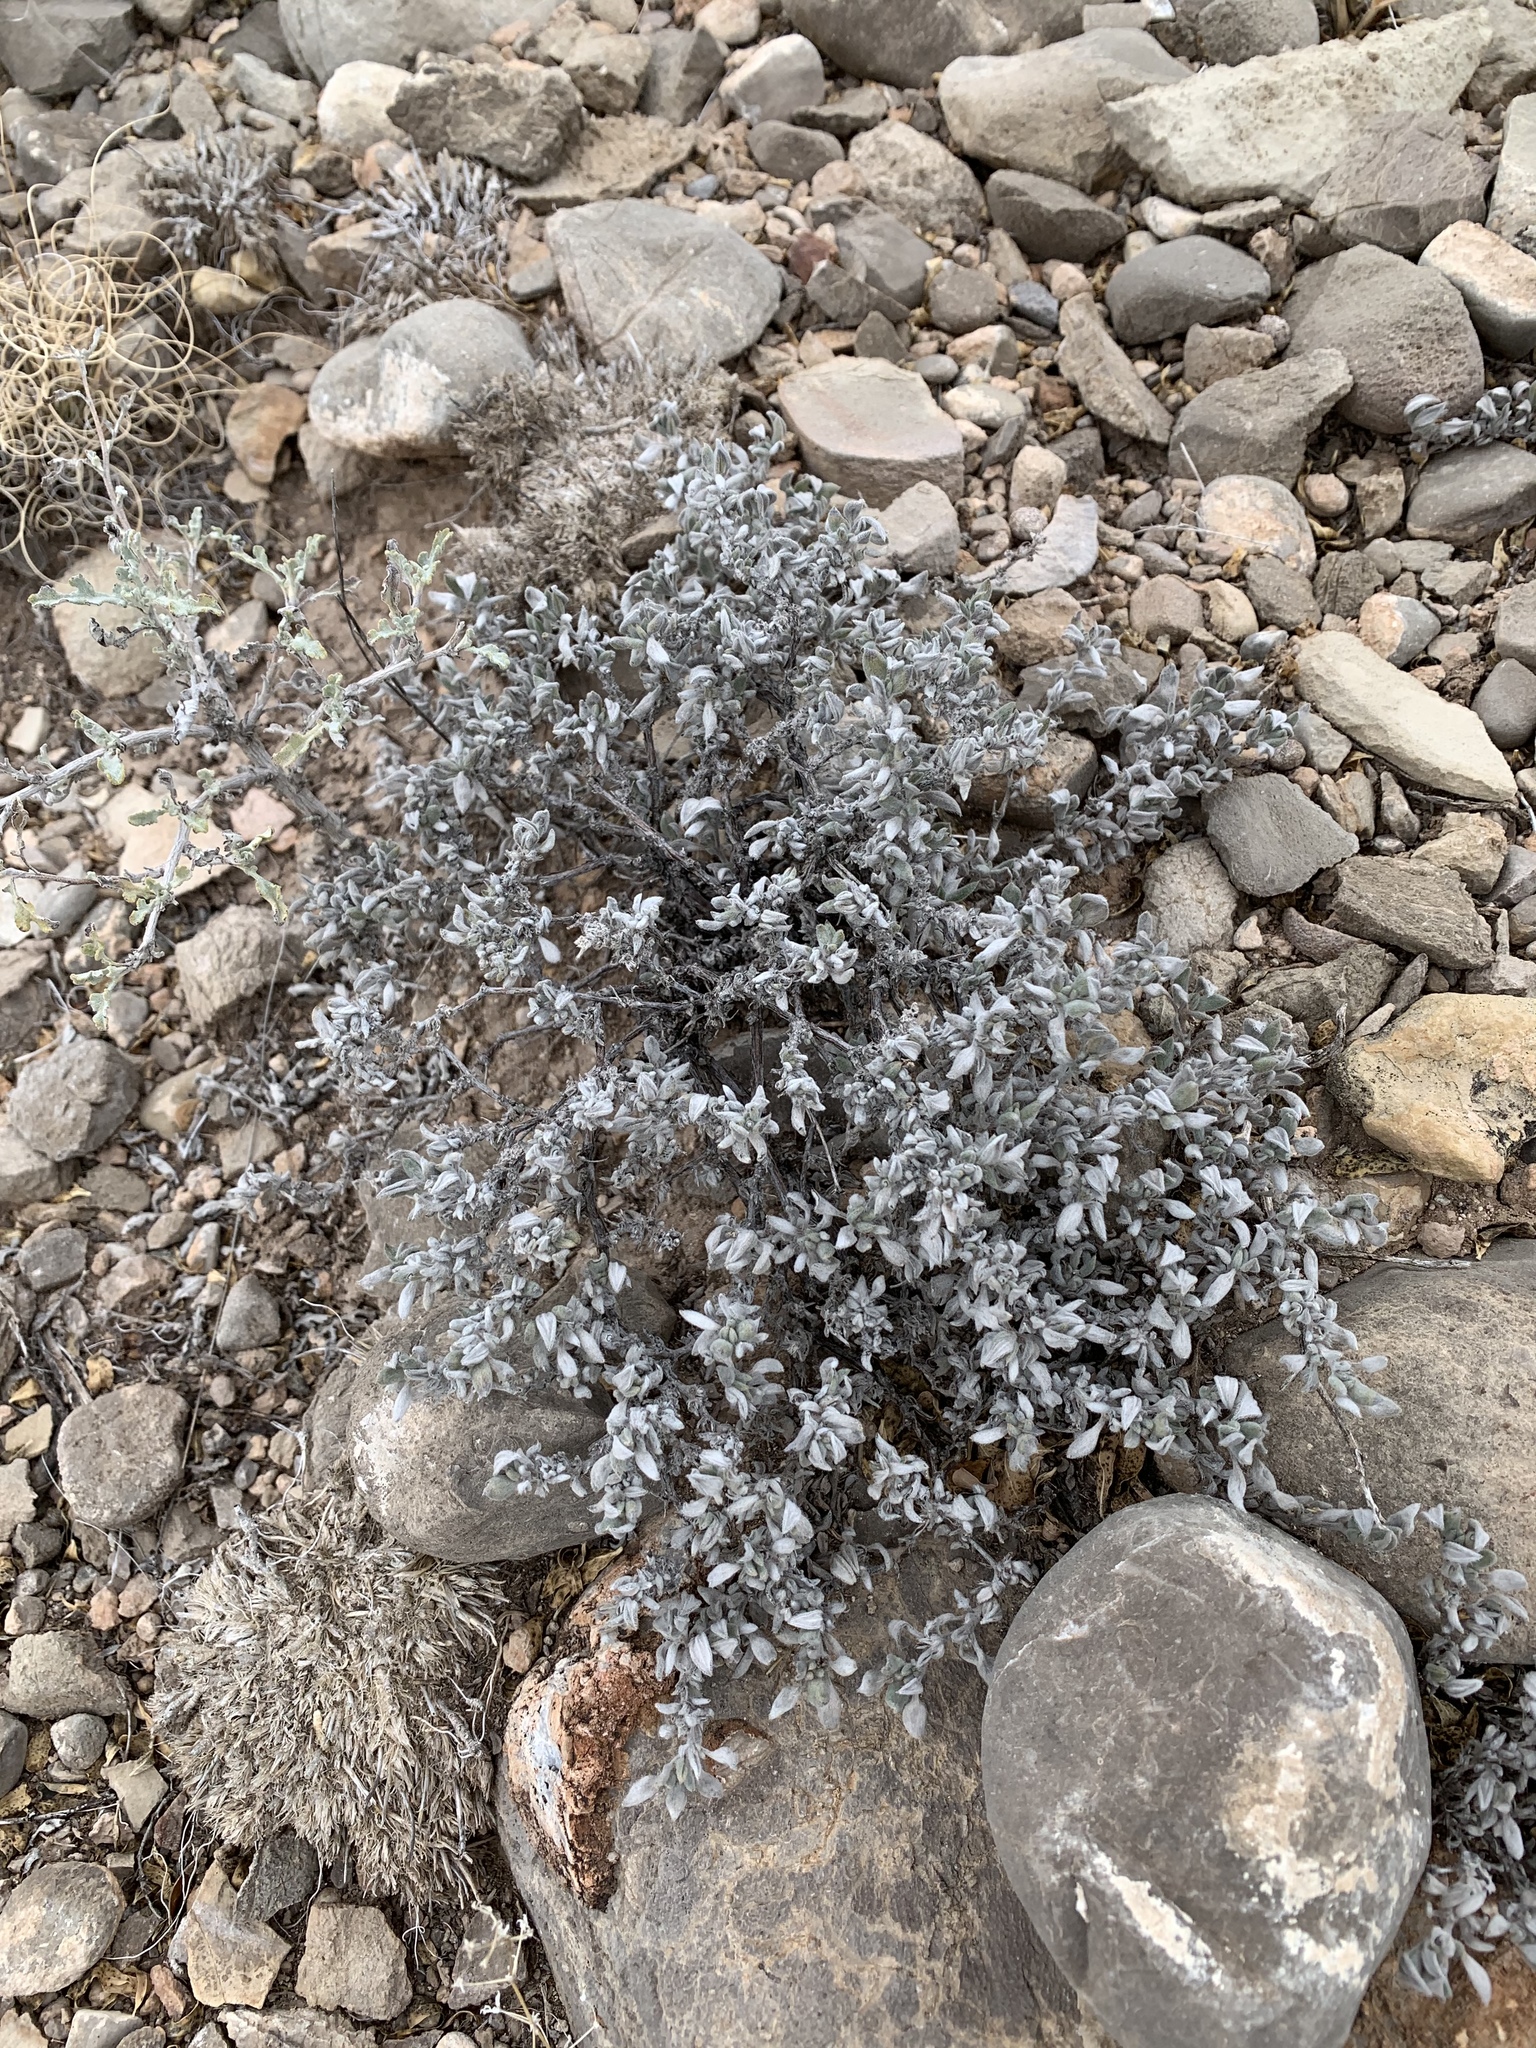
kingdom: Plantae
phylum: Tracheophyta
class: Magnoliopsida
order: Boraginales
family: Ehretiaceae
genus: Tiquilia
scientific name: Tiquilia canescens
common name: Hairy tiquilia
